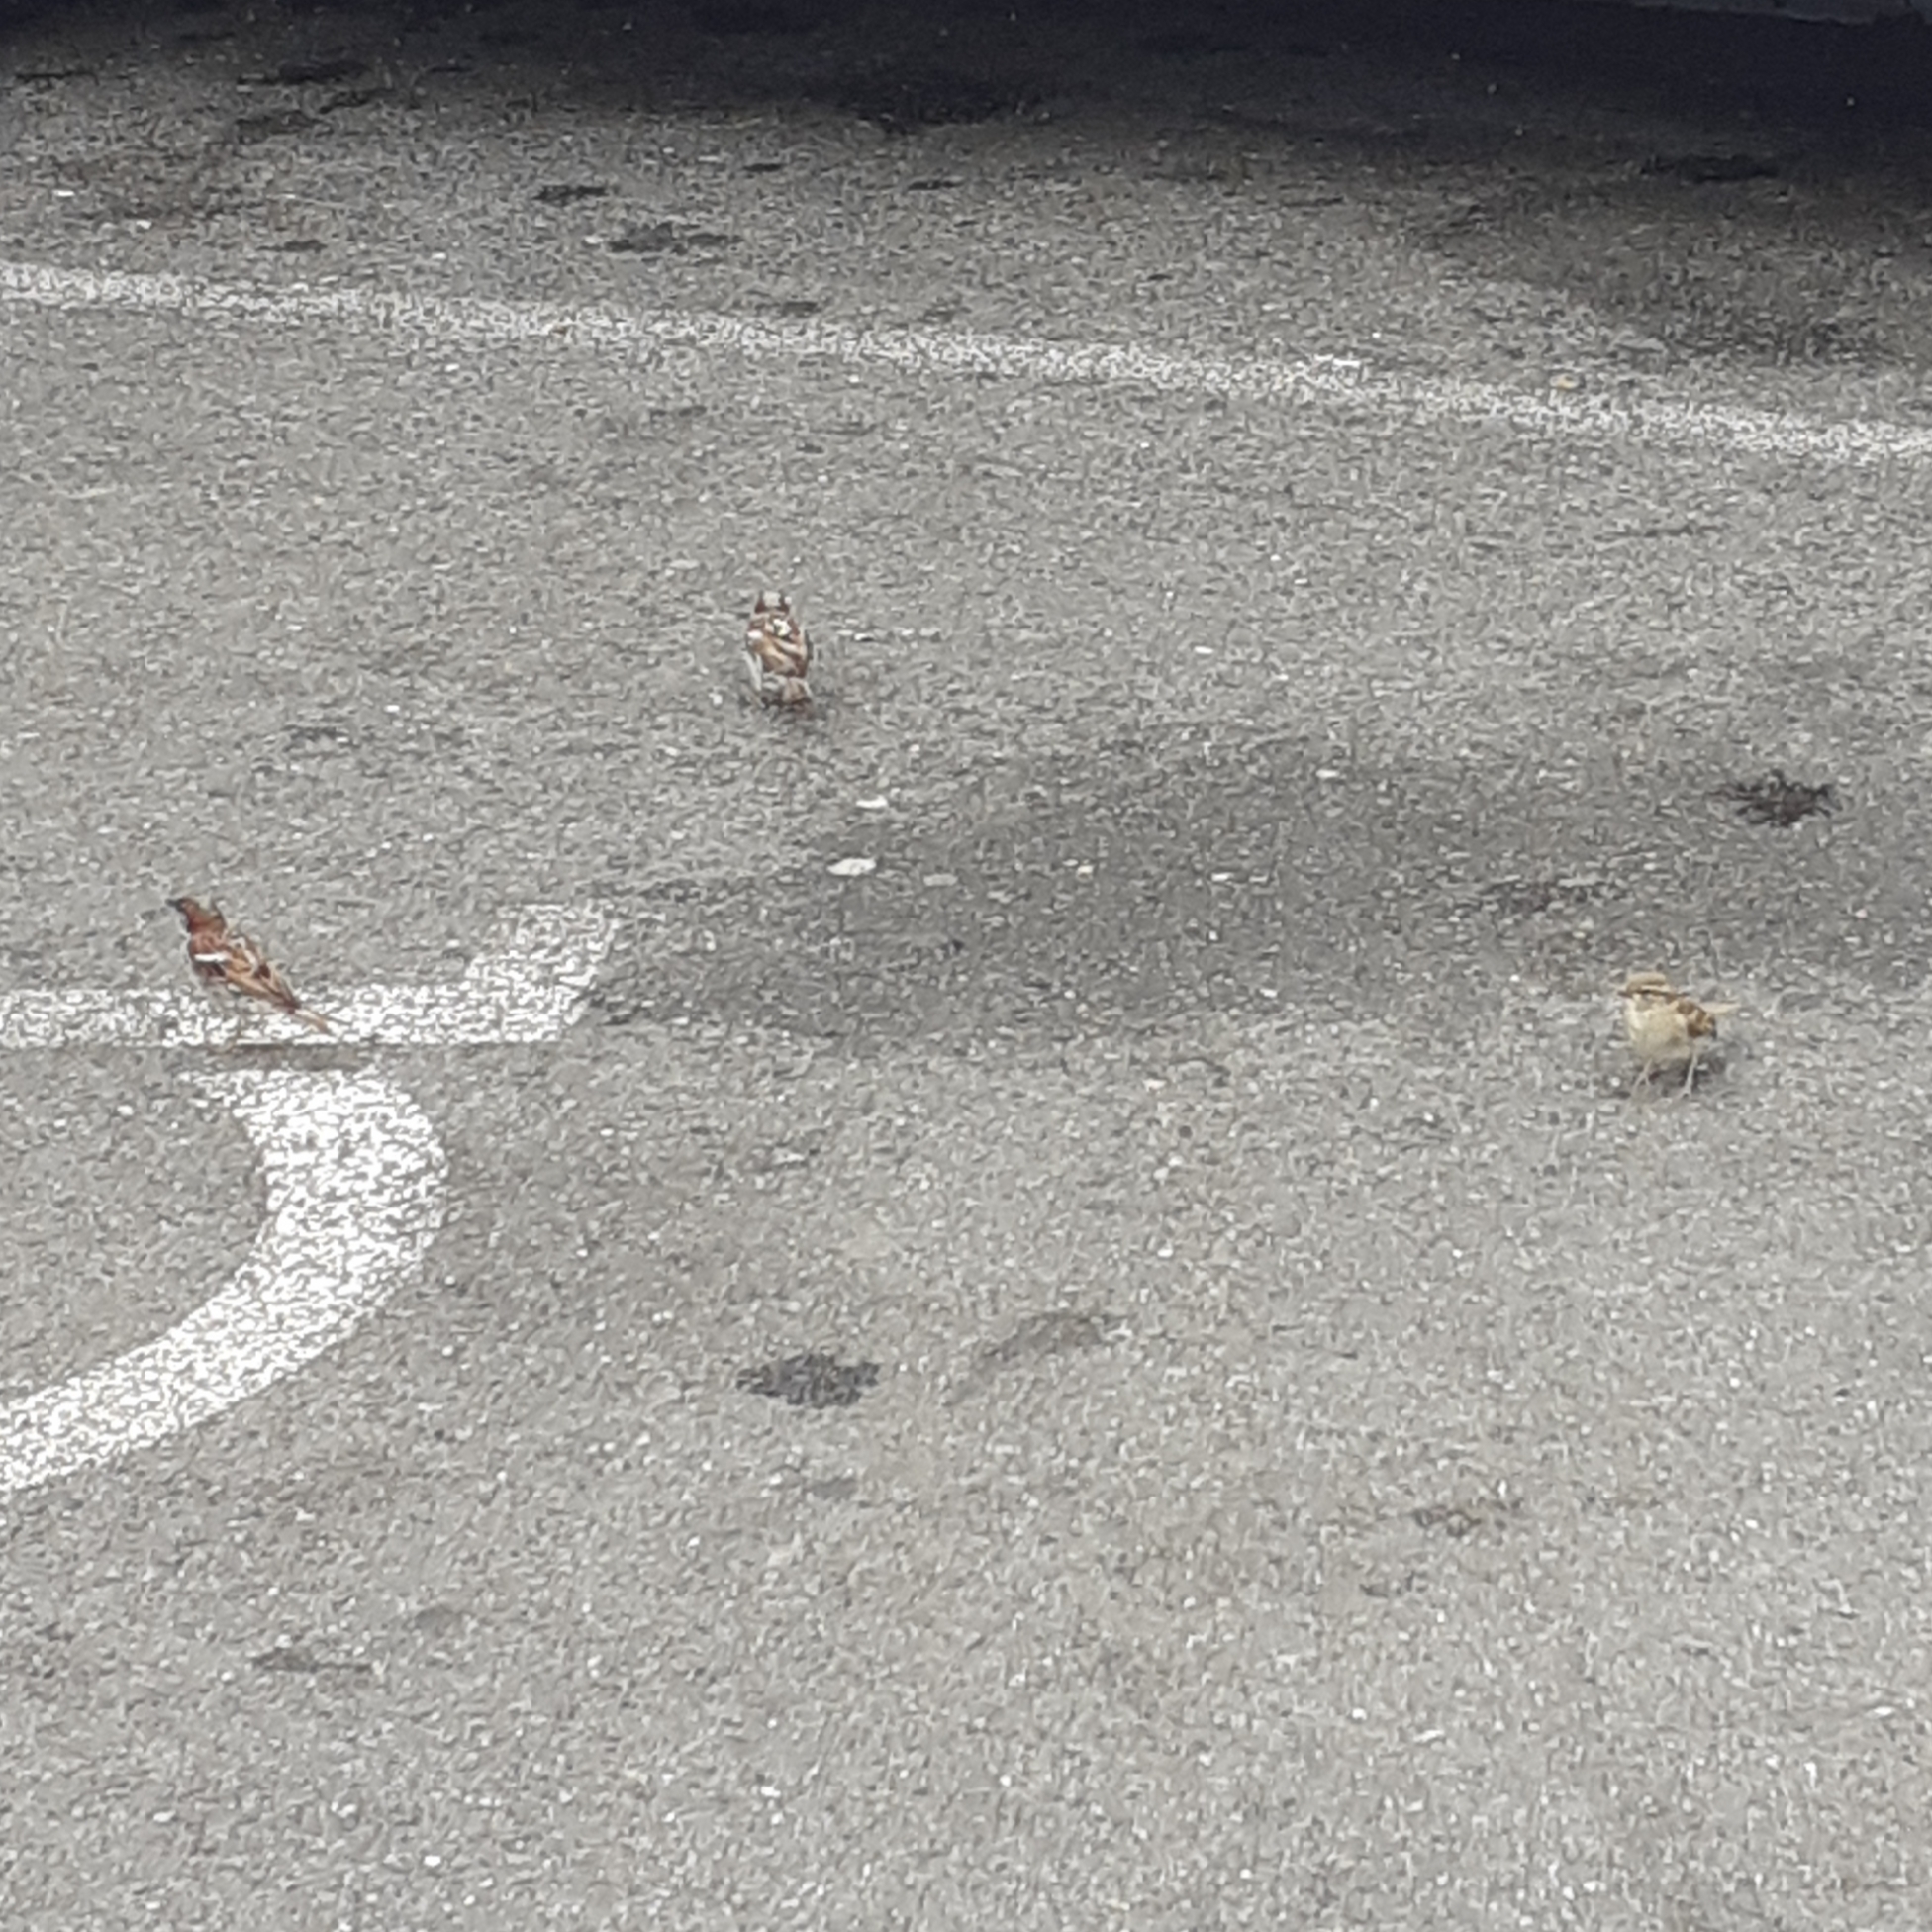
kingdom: Animalia
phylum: Chordata
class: Aves
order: Passeriformes
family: Passeridae
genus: Passer
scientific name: Passer domesticus
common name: House sparrow
